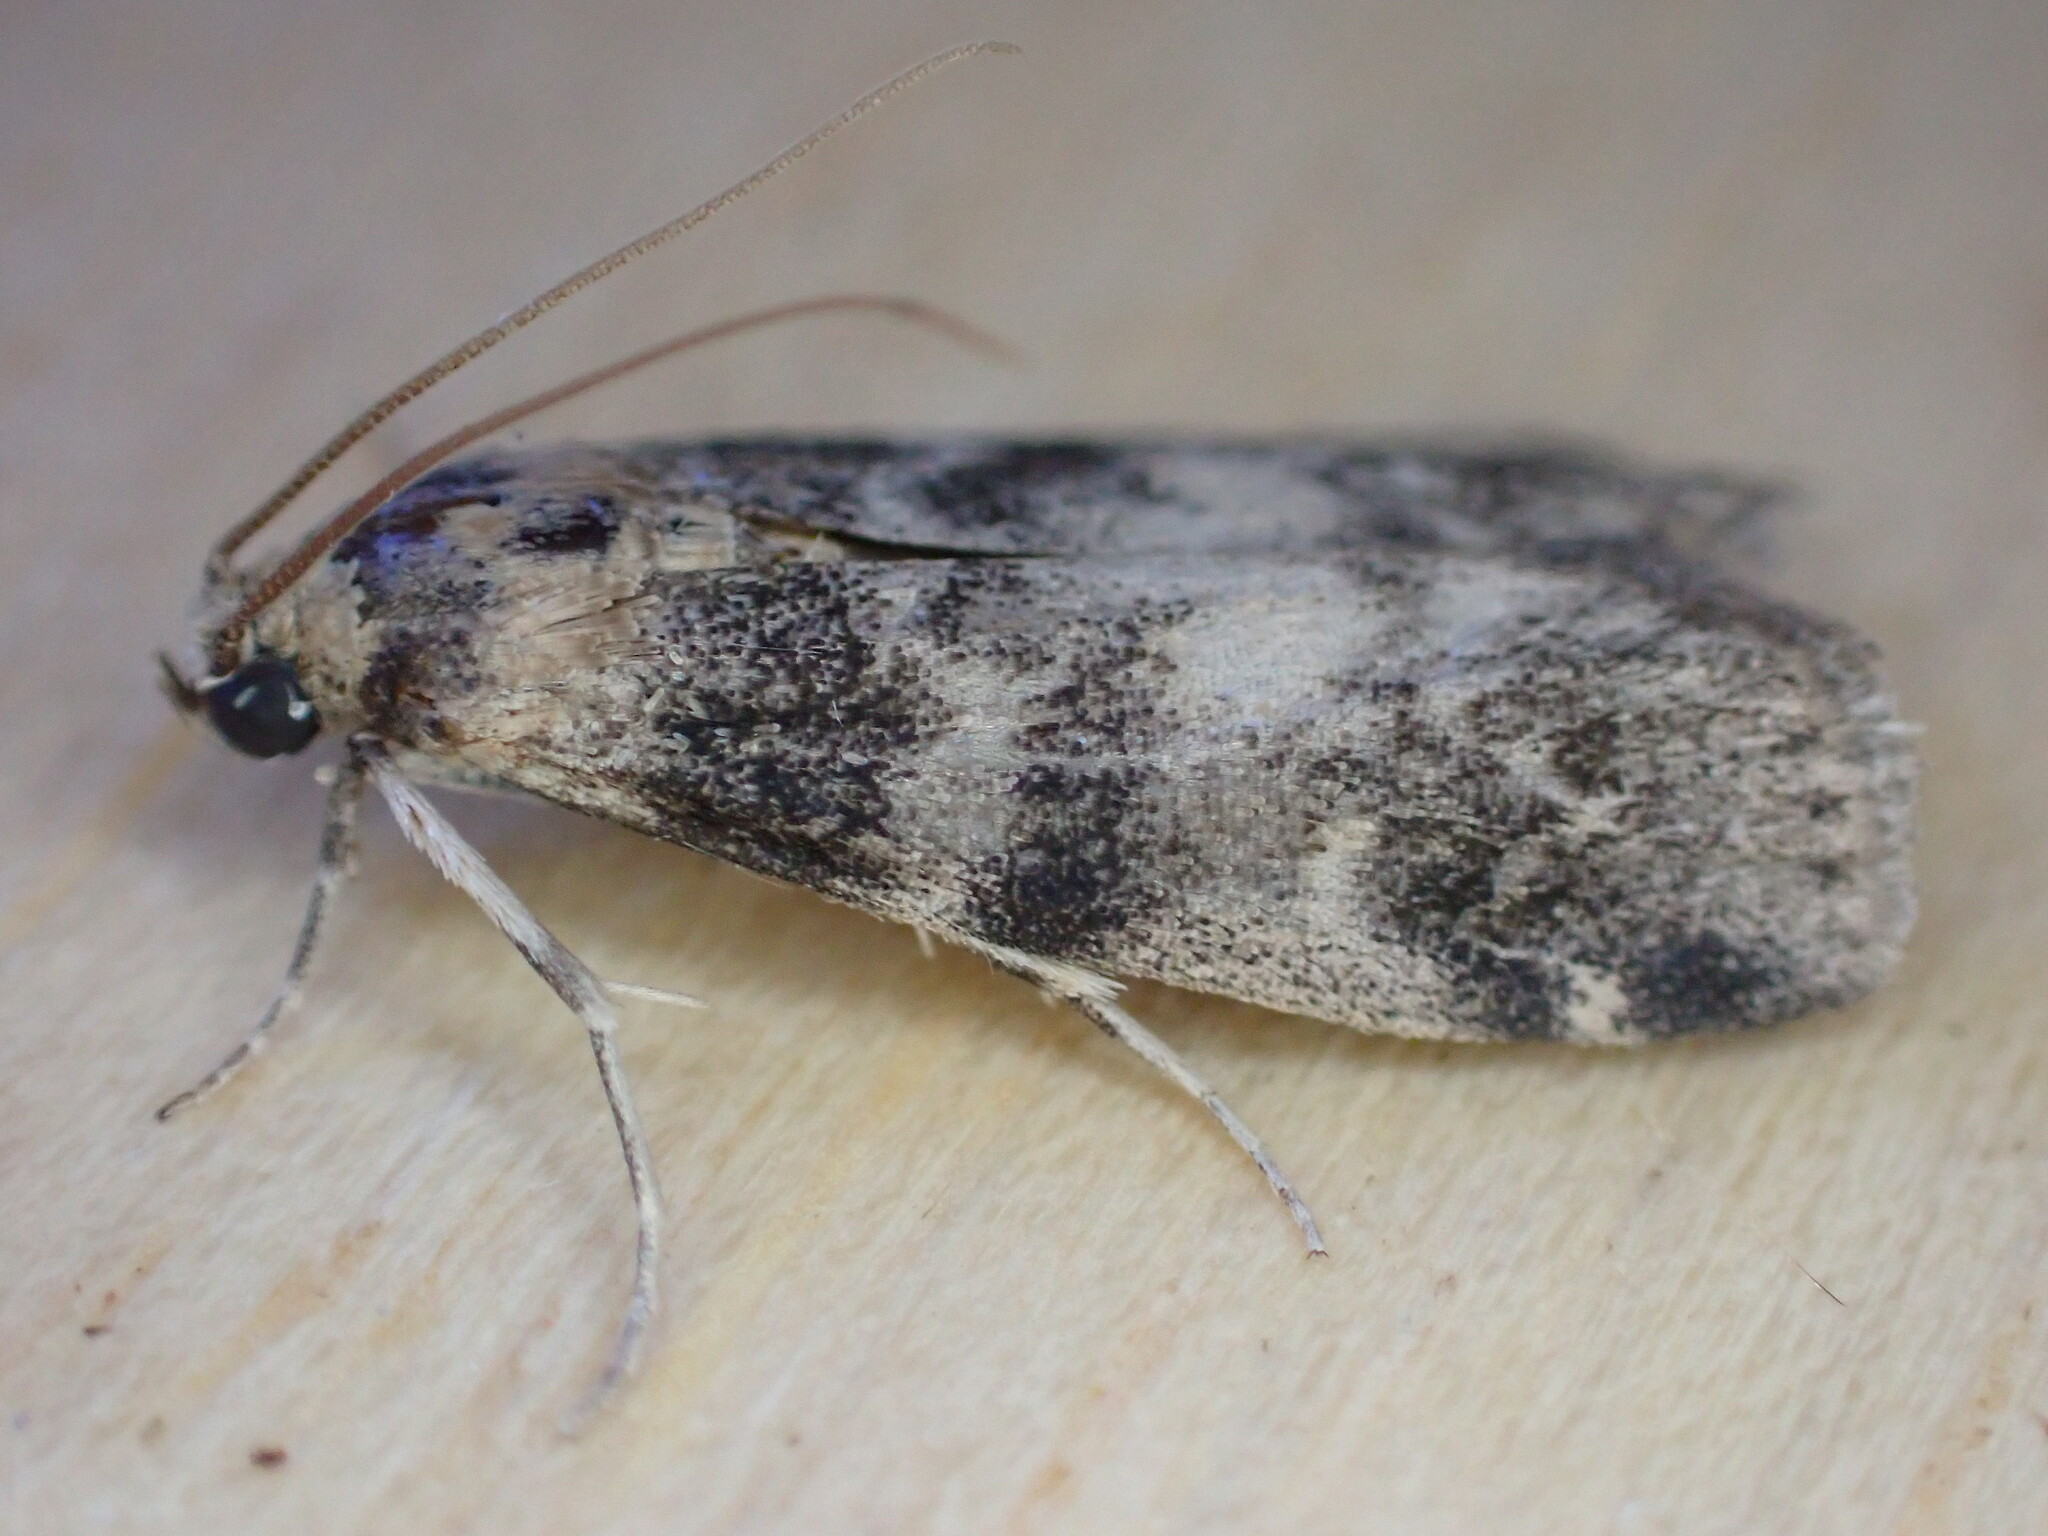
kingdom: Animalia
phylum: Arthropoda
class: Insecta
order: Lepidoptera
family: Pyralidae
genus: Euzophera
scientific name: Euzophera pinguis
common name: Ash-bark knot-horn
